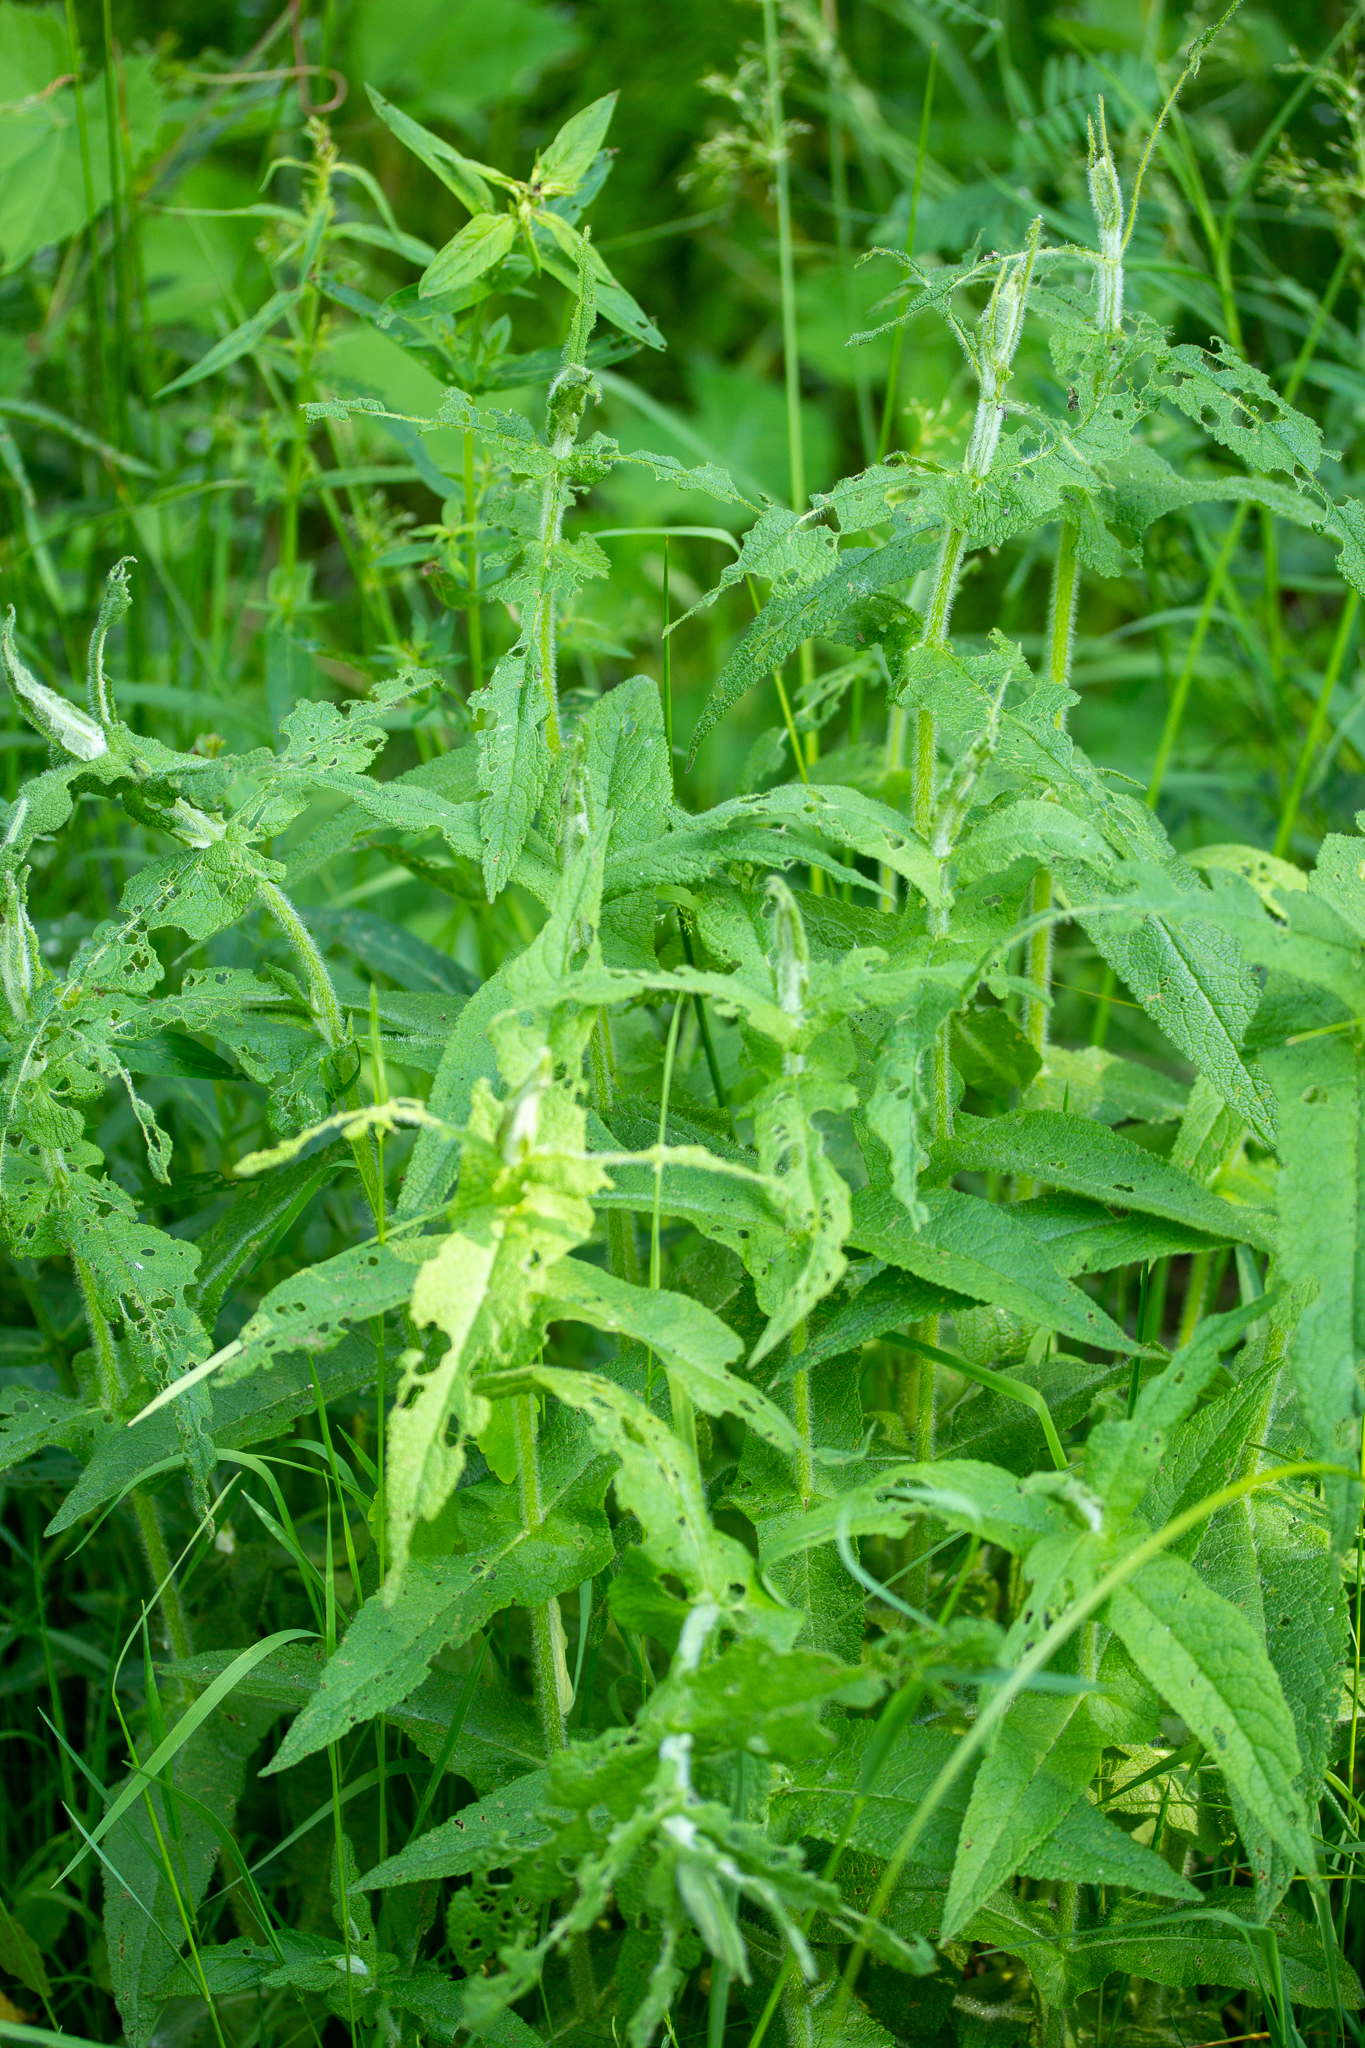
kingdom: Plantae
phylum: Tracheophyta
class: Magnoliopsida
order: Asterales
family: Asteraceae
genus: Eupatorium
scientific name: Eupatorium perfoliatum
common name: Boneset
